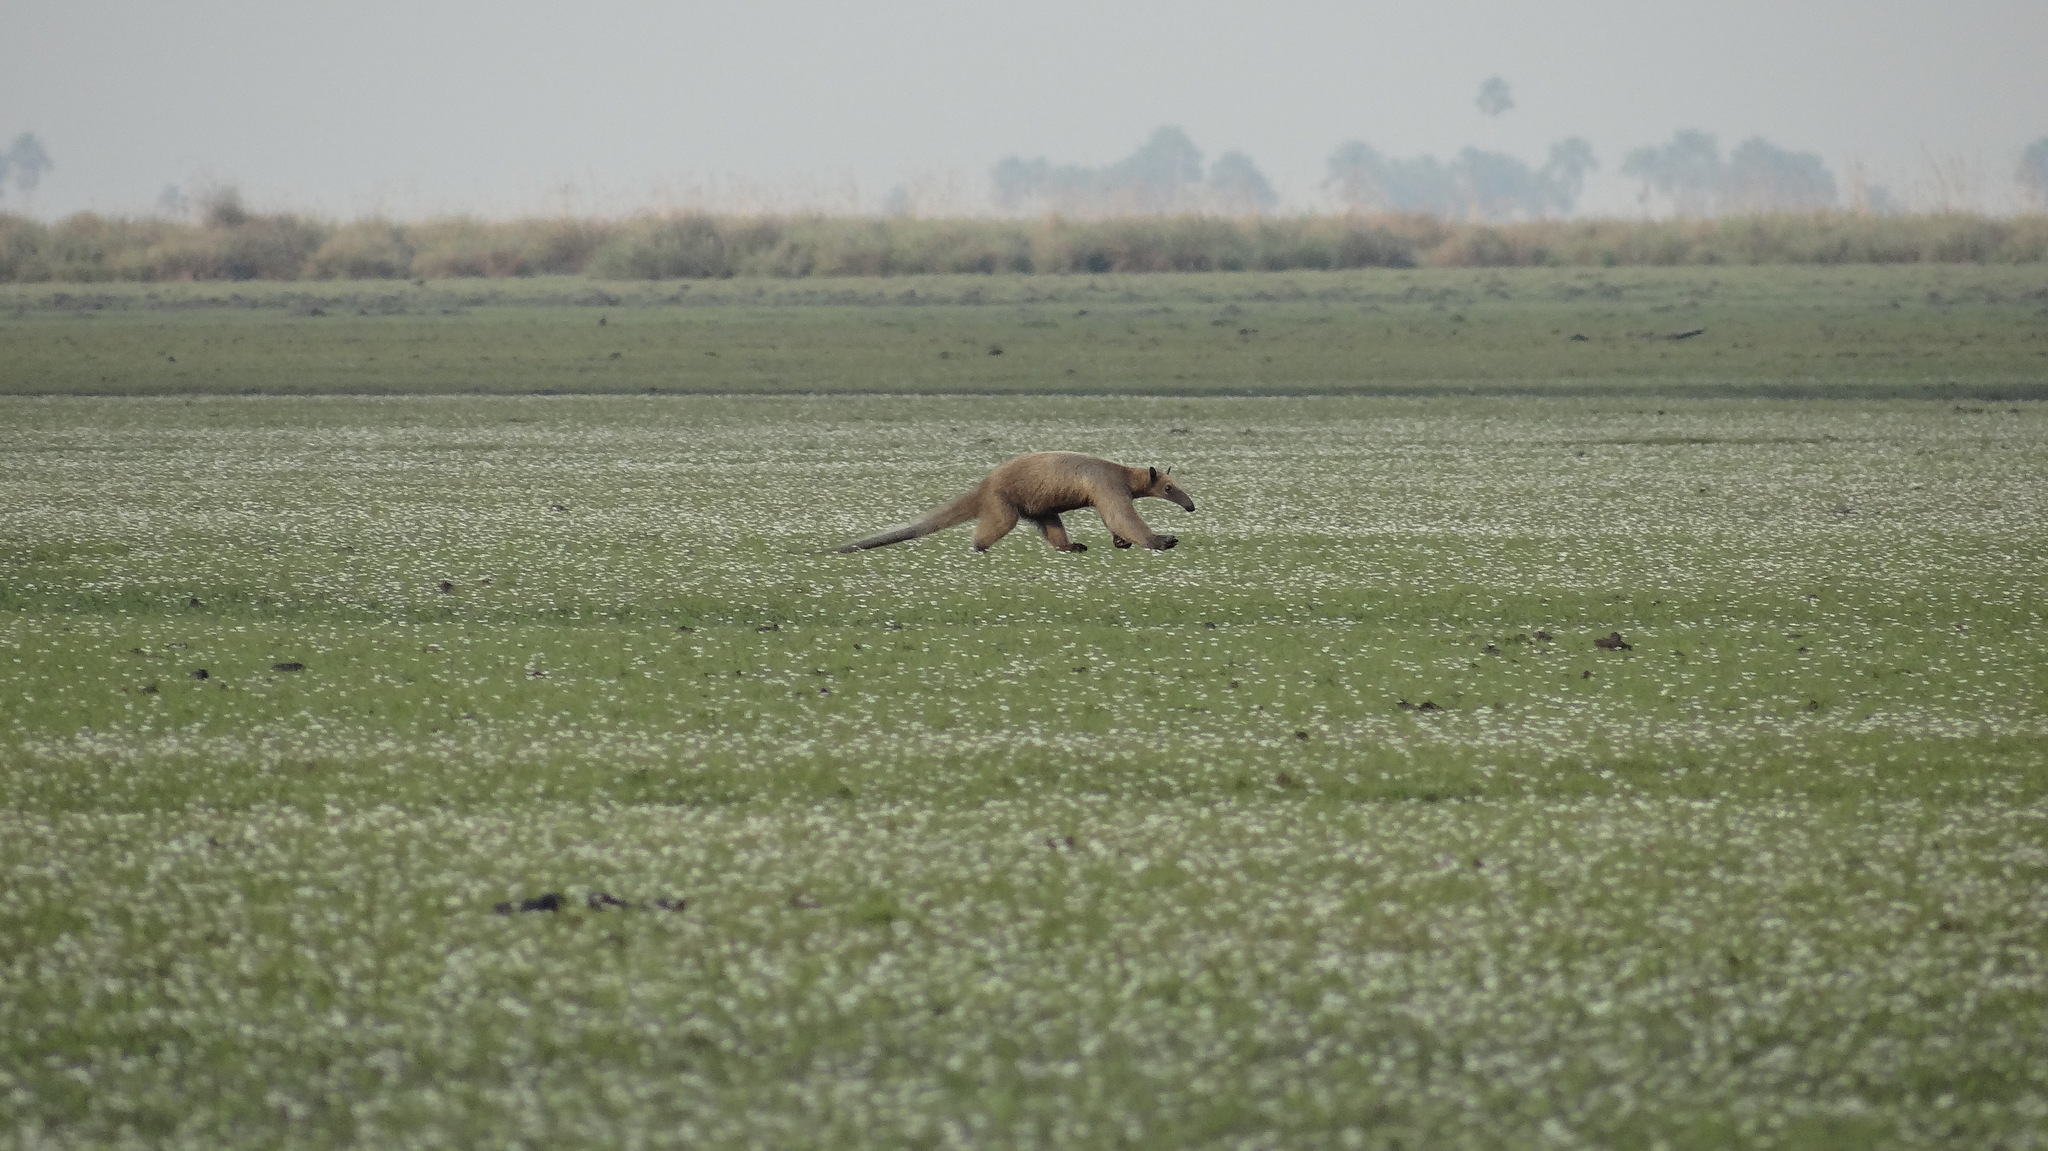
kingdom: Animalia
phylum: Chordata
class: Mammalia
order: Pilosa
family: Myrmecophagidae
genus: Tamandua
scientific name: Tamandua tetradactyla
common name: Southern tamandua
